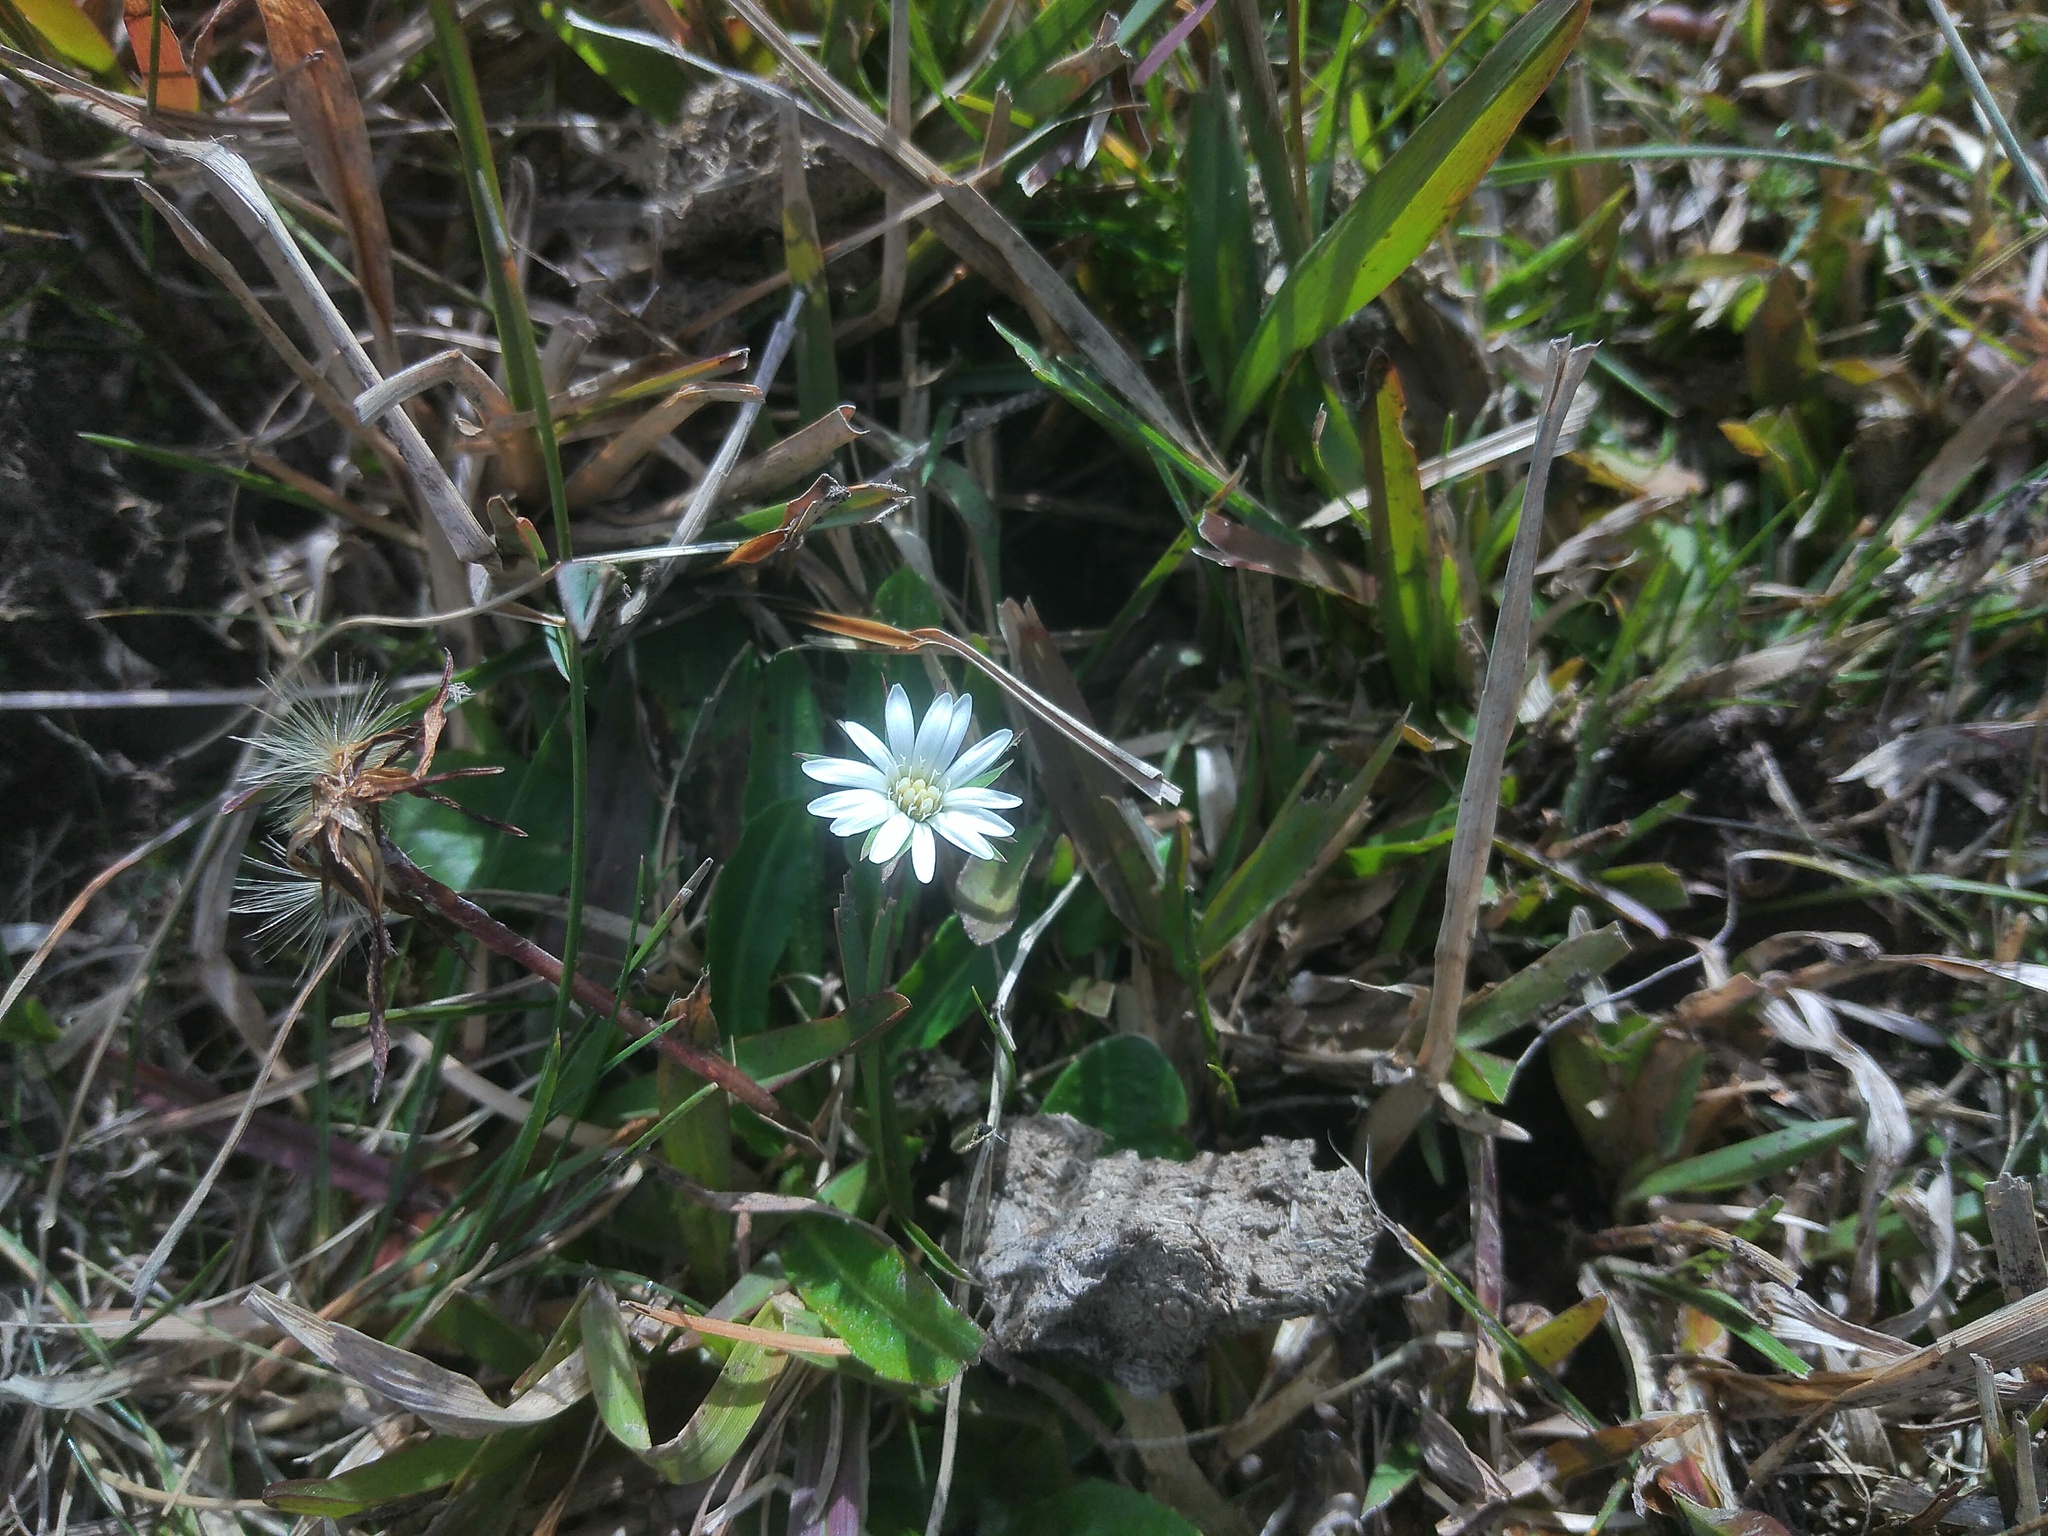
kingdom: Plantae
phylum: Tracheophyta
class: Magnoliopsida
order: Asterales
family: Asteraceae
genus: Chaptalia
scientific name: Chaptalia piloselloides
